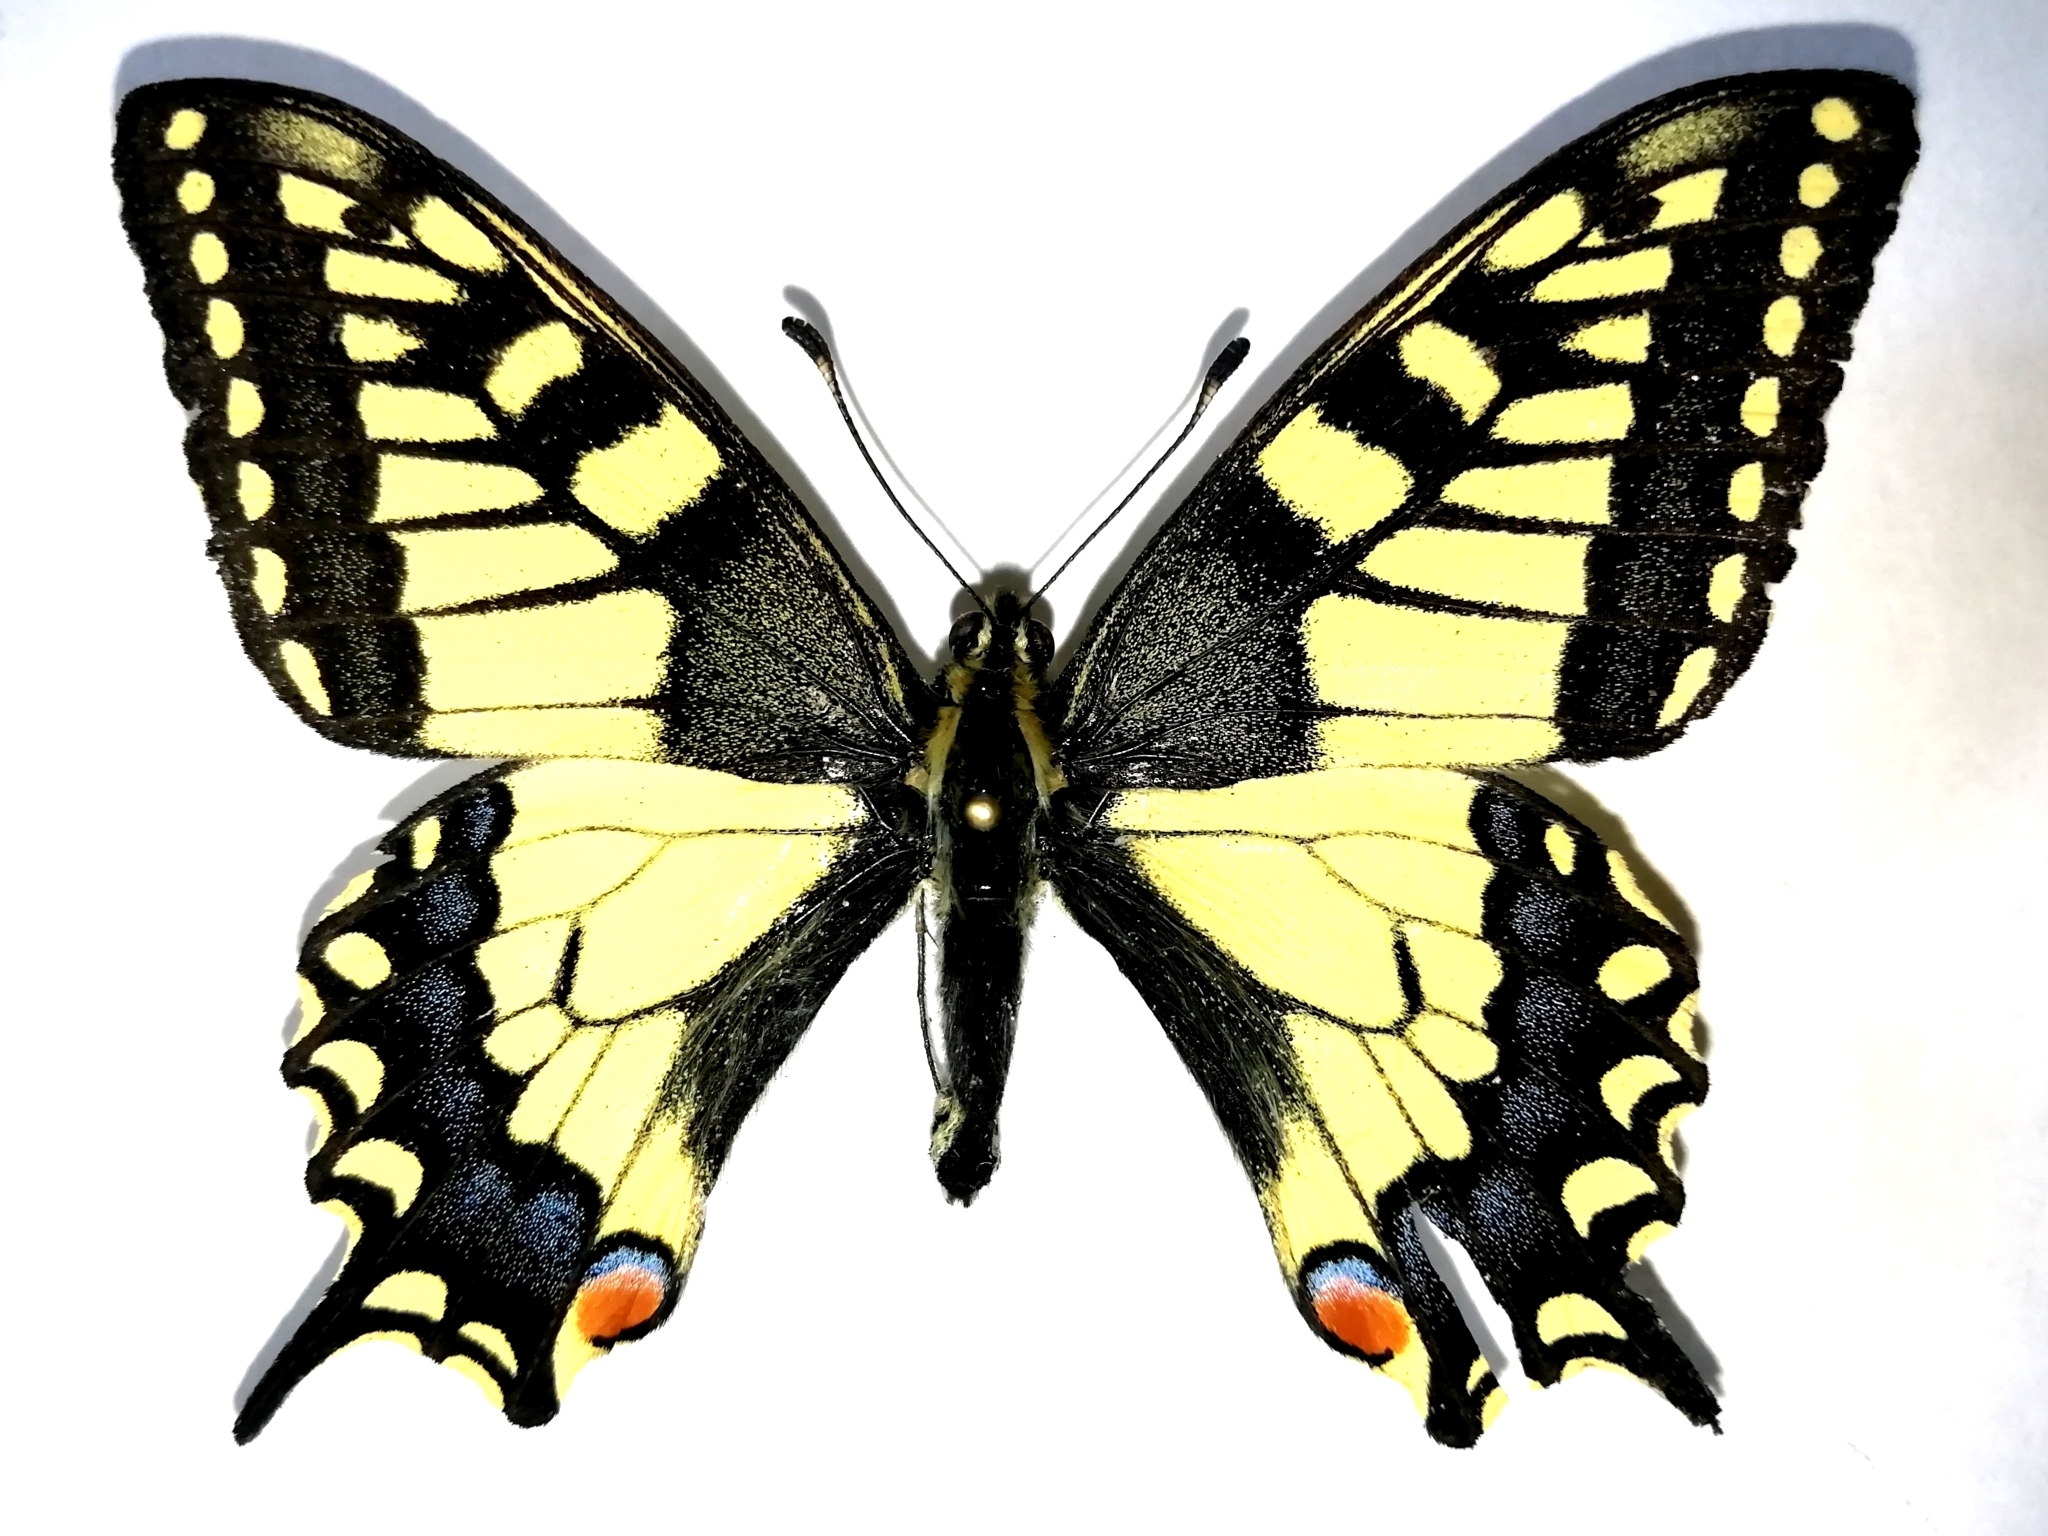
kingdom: Animalia
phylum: Arthropoda
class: Insecta
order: Lepidoptera
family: Papilionidae
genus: Papilio
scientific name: Papilio machaon
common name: Swallowtail
